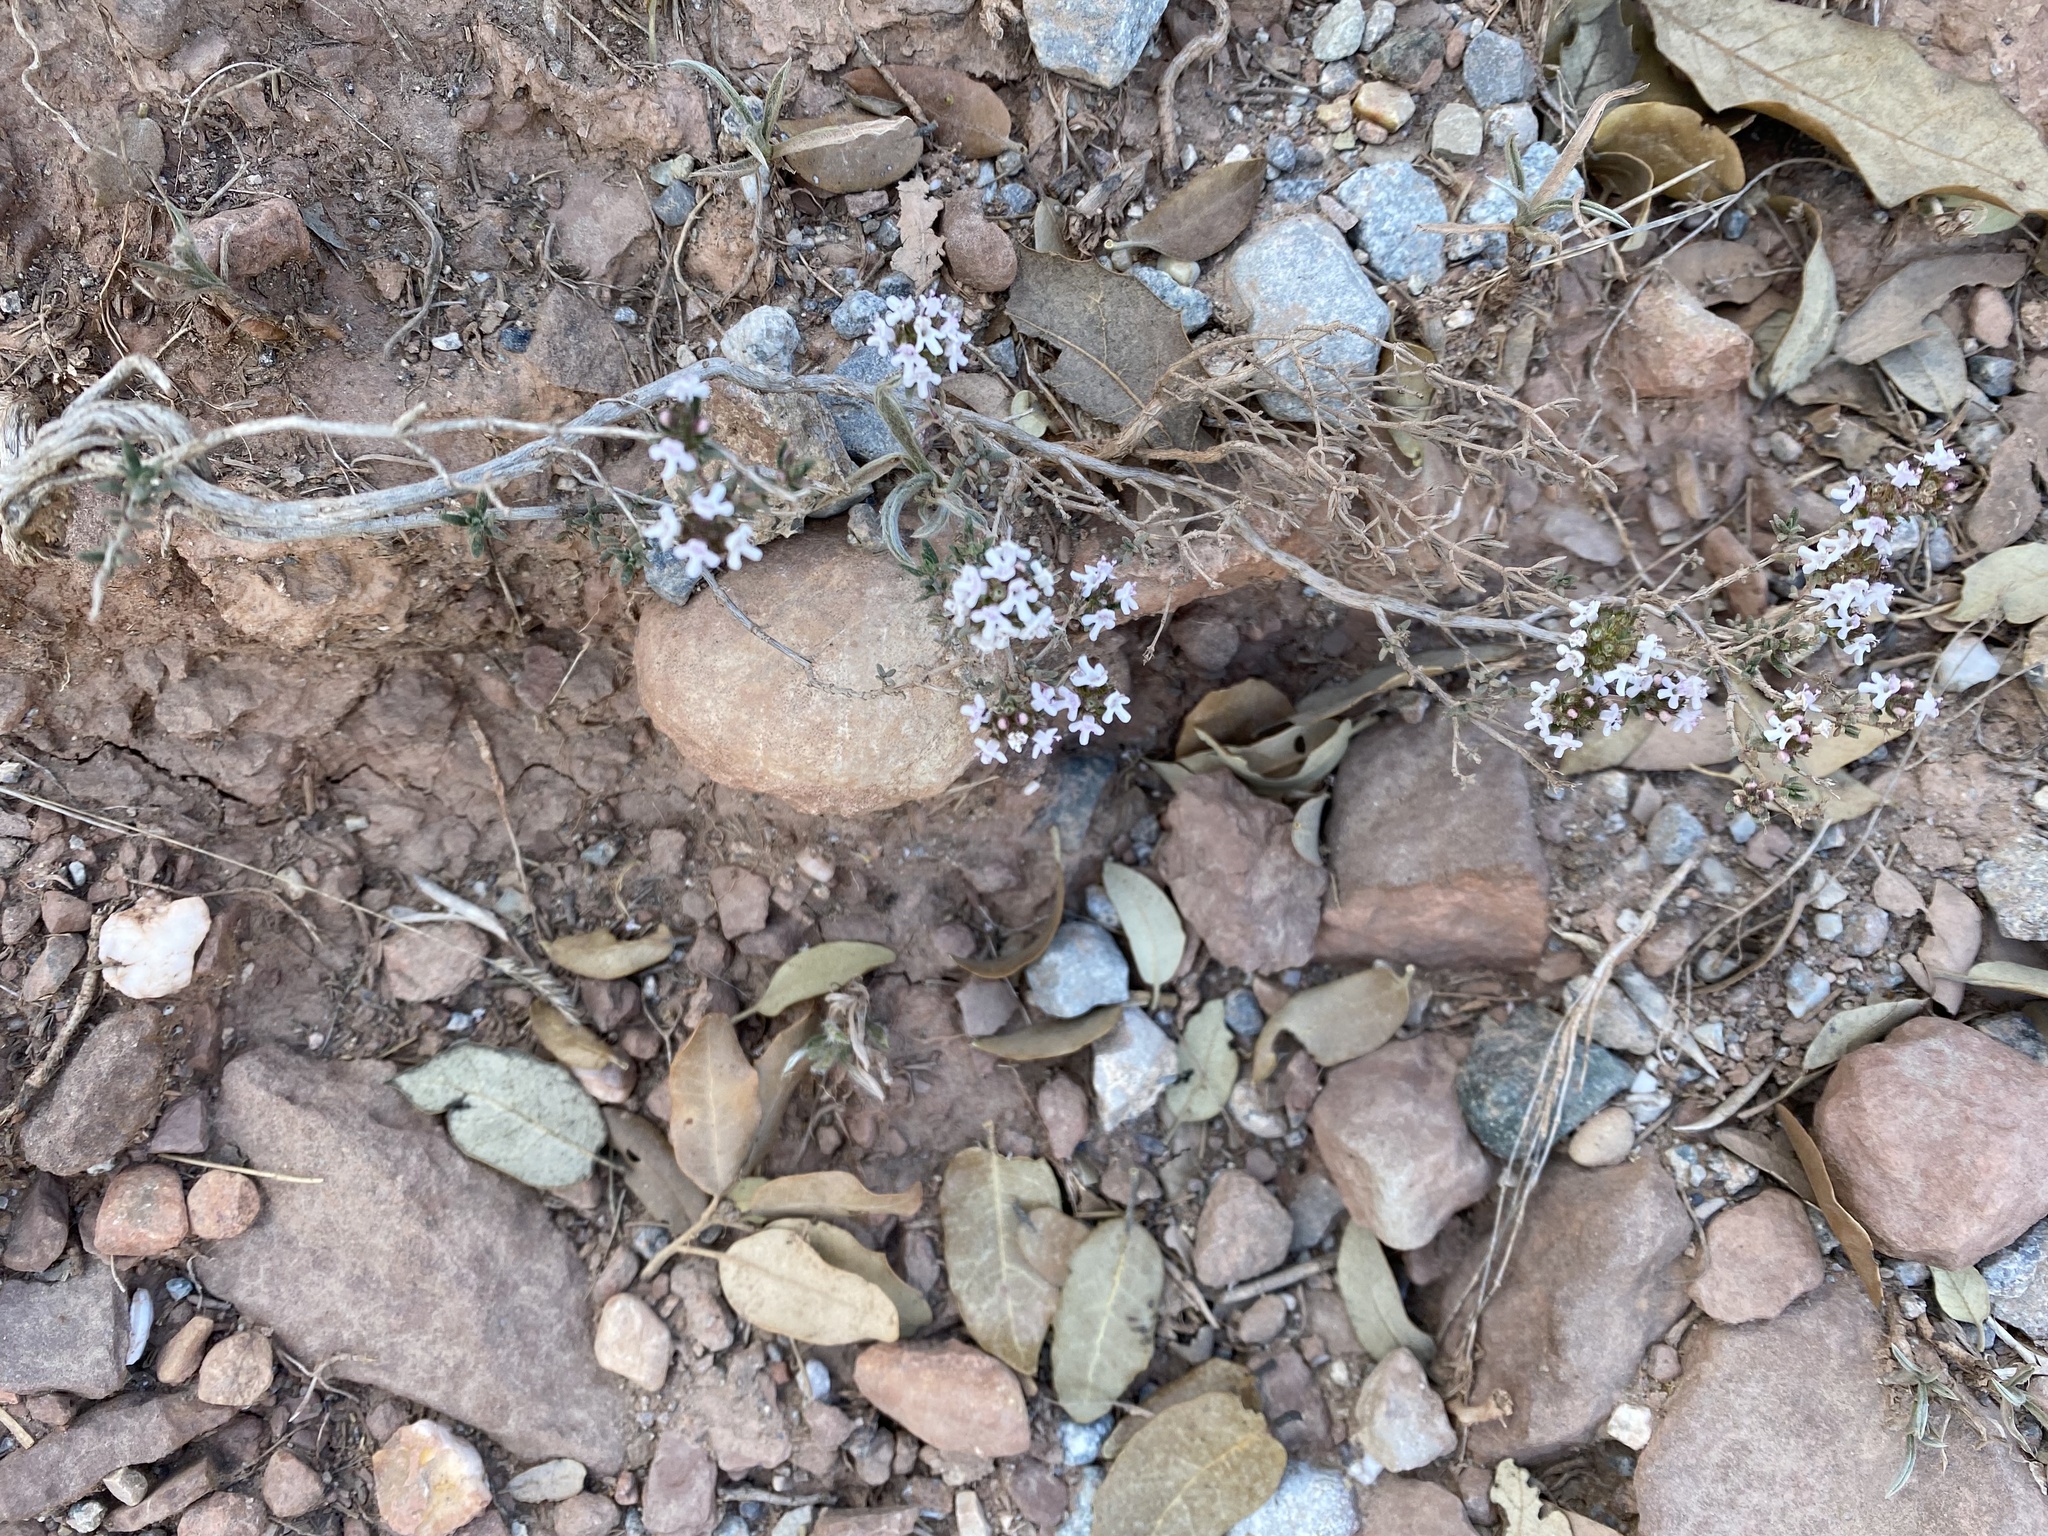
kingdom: Plantae
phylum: Tracheophyta
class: Magnoliopsida
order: Lamiales
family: Lamiaceae
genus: Thymus
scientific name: Thymus vulgaris
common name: Garden thyme
